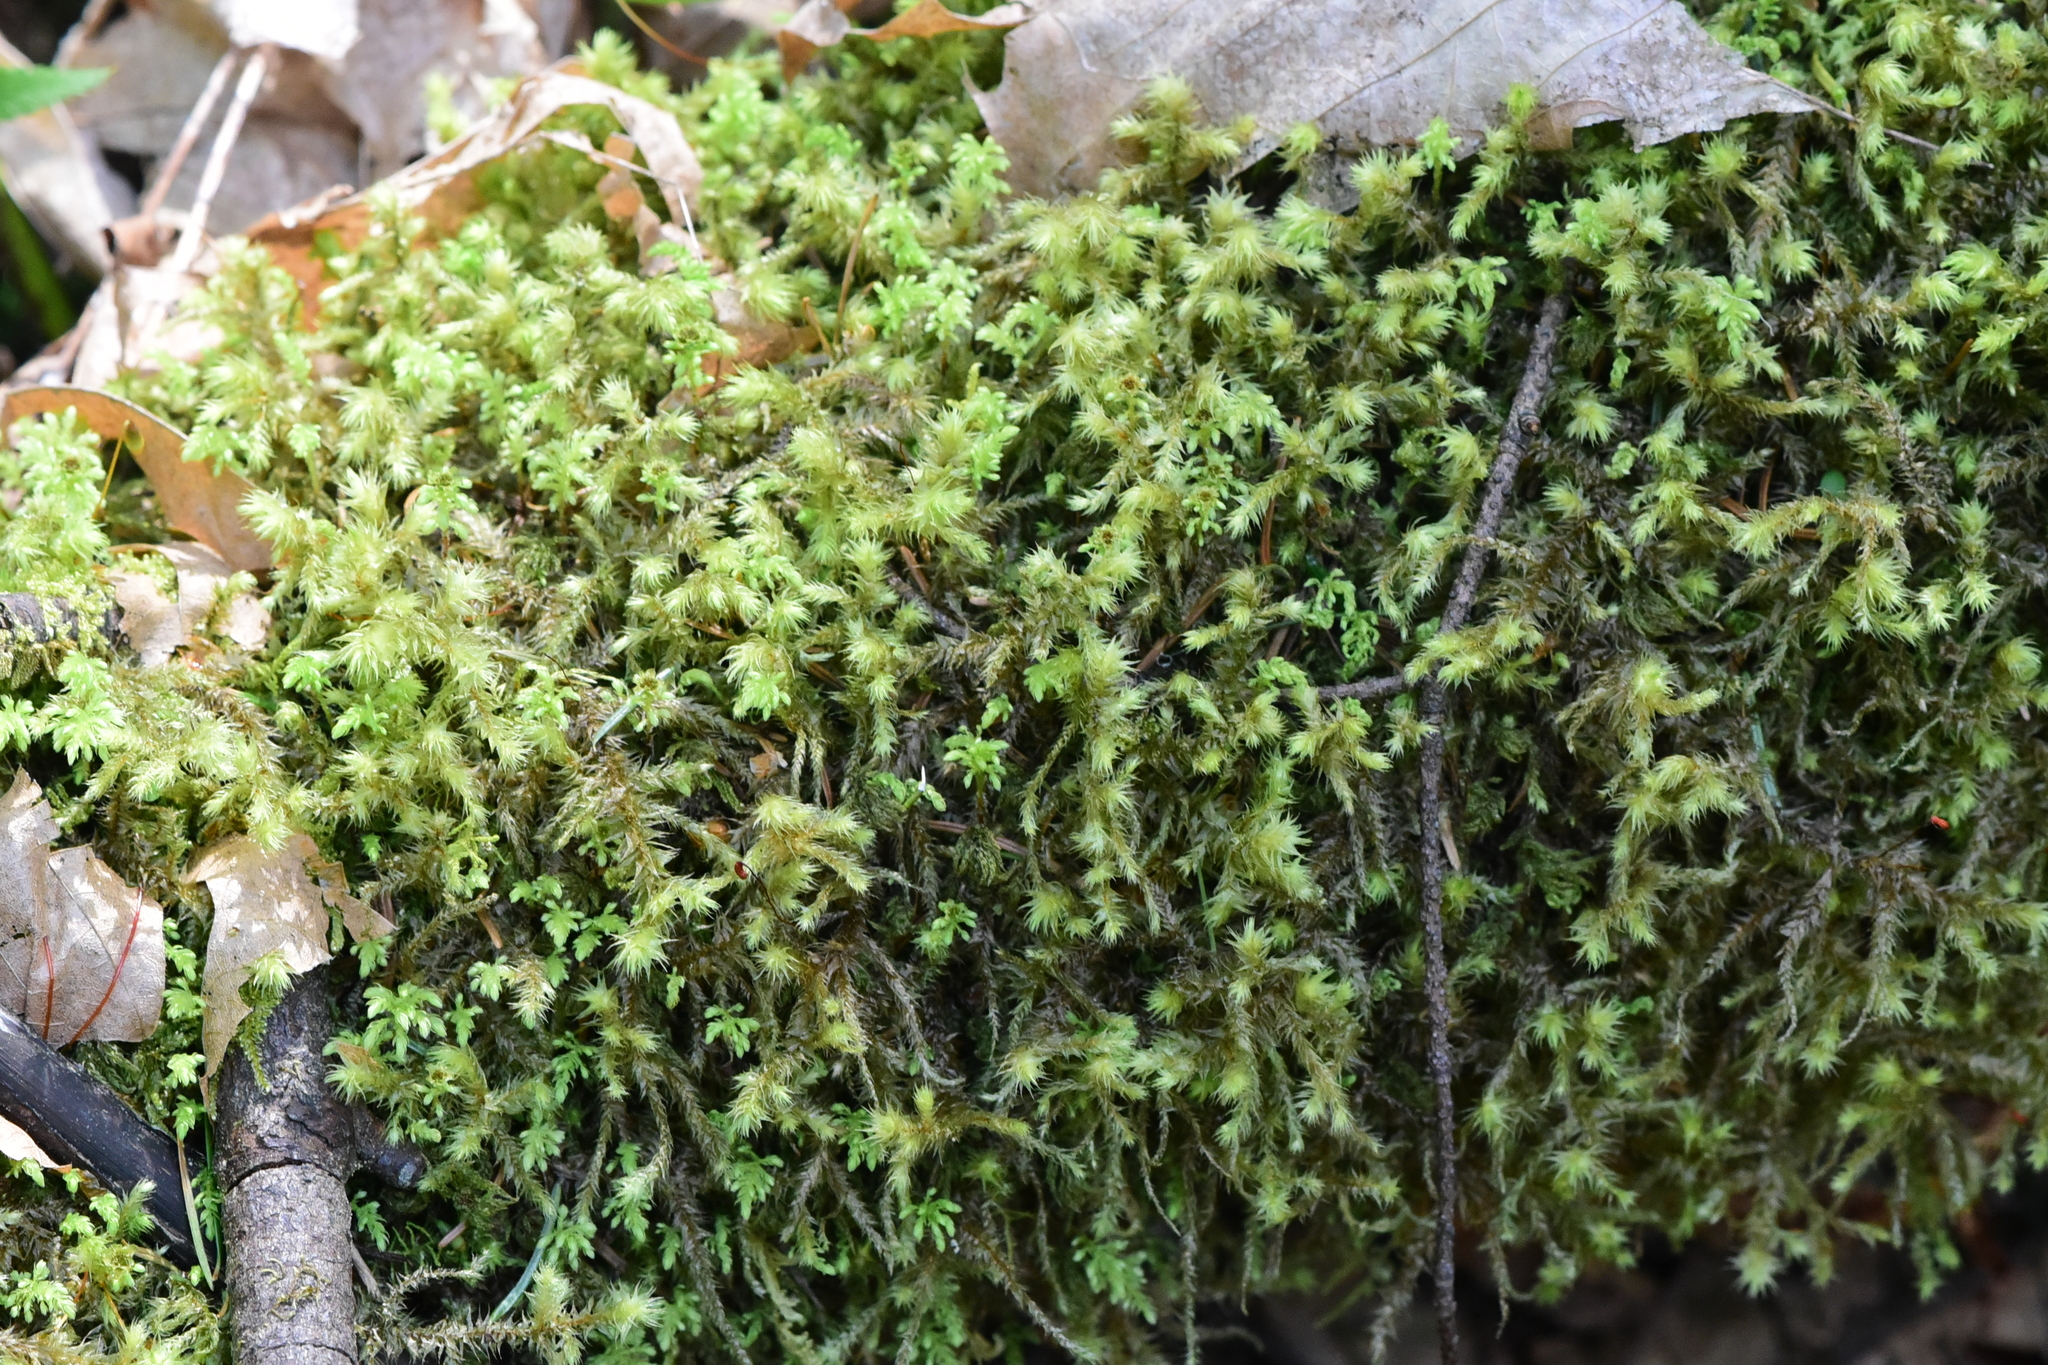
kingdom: Plantae
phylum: Bryophyta
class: Bryopsida
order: Hypnales
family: Hylocomiaceae
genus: Hylocomiadelphus
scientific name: Hylocomiadelphus triquetrus
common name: Rough goose neck moss
